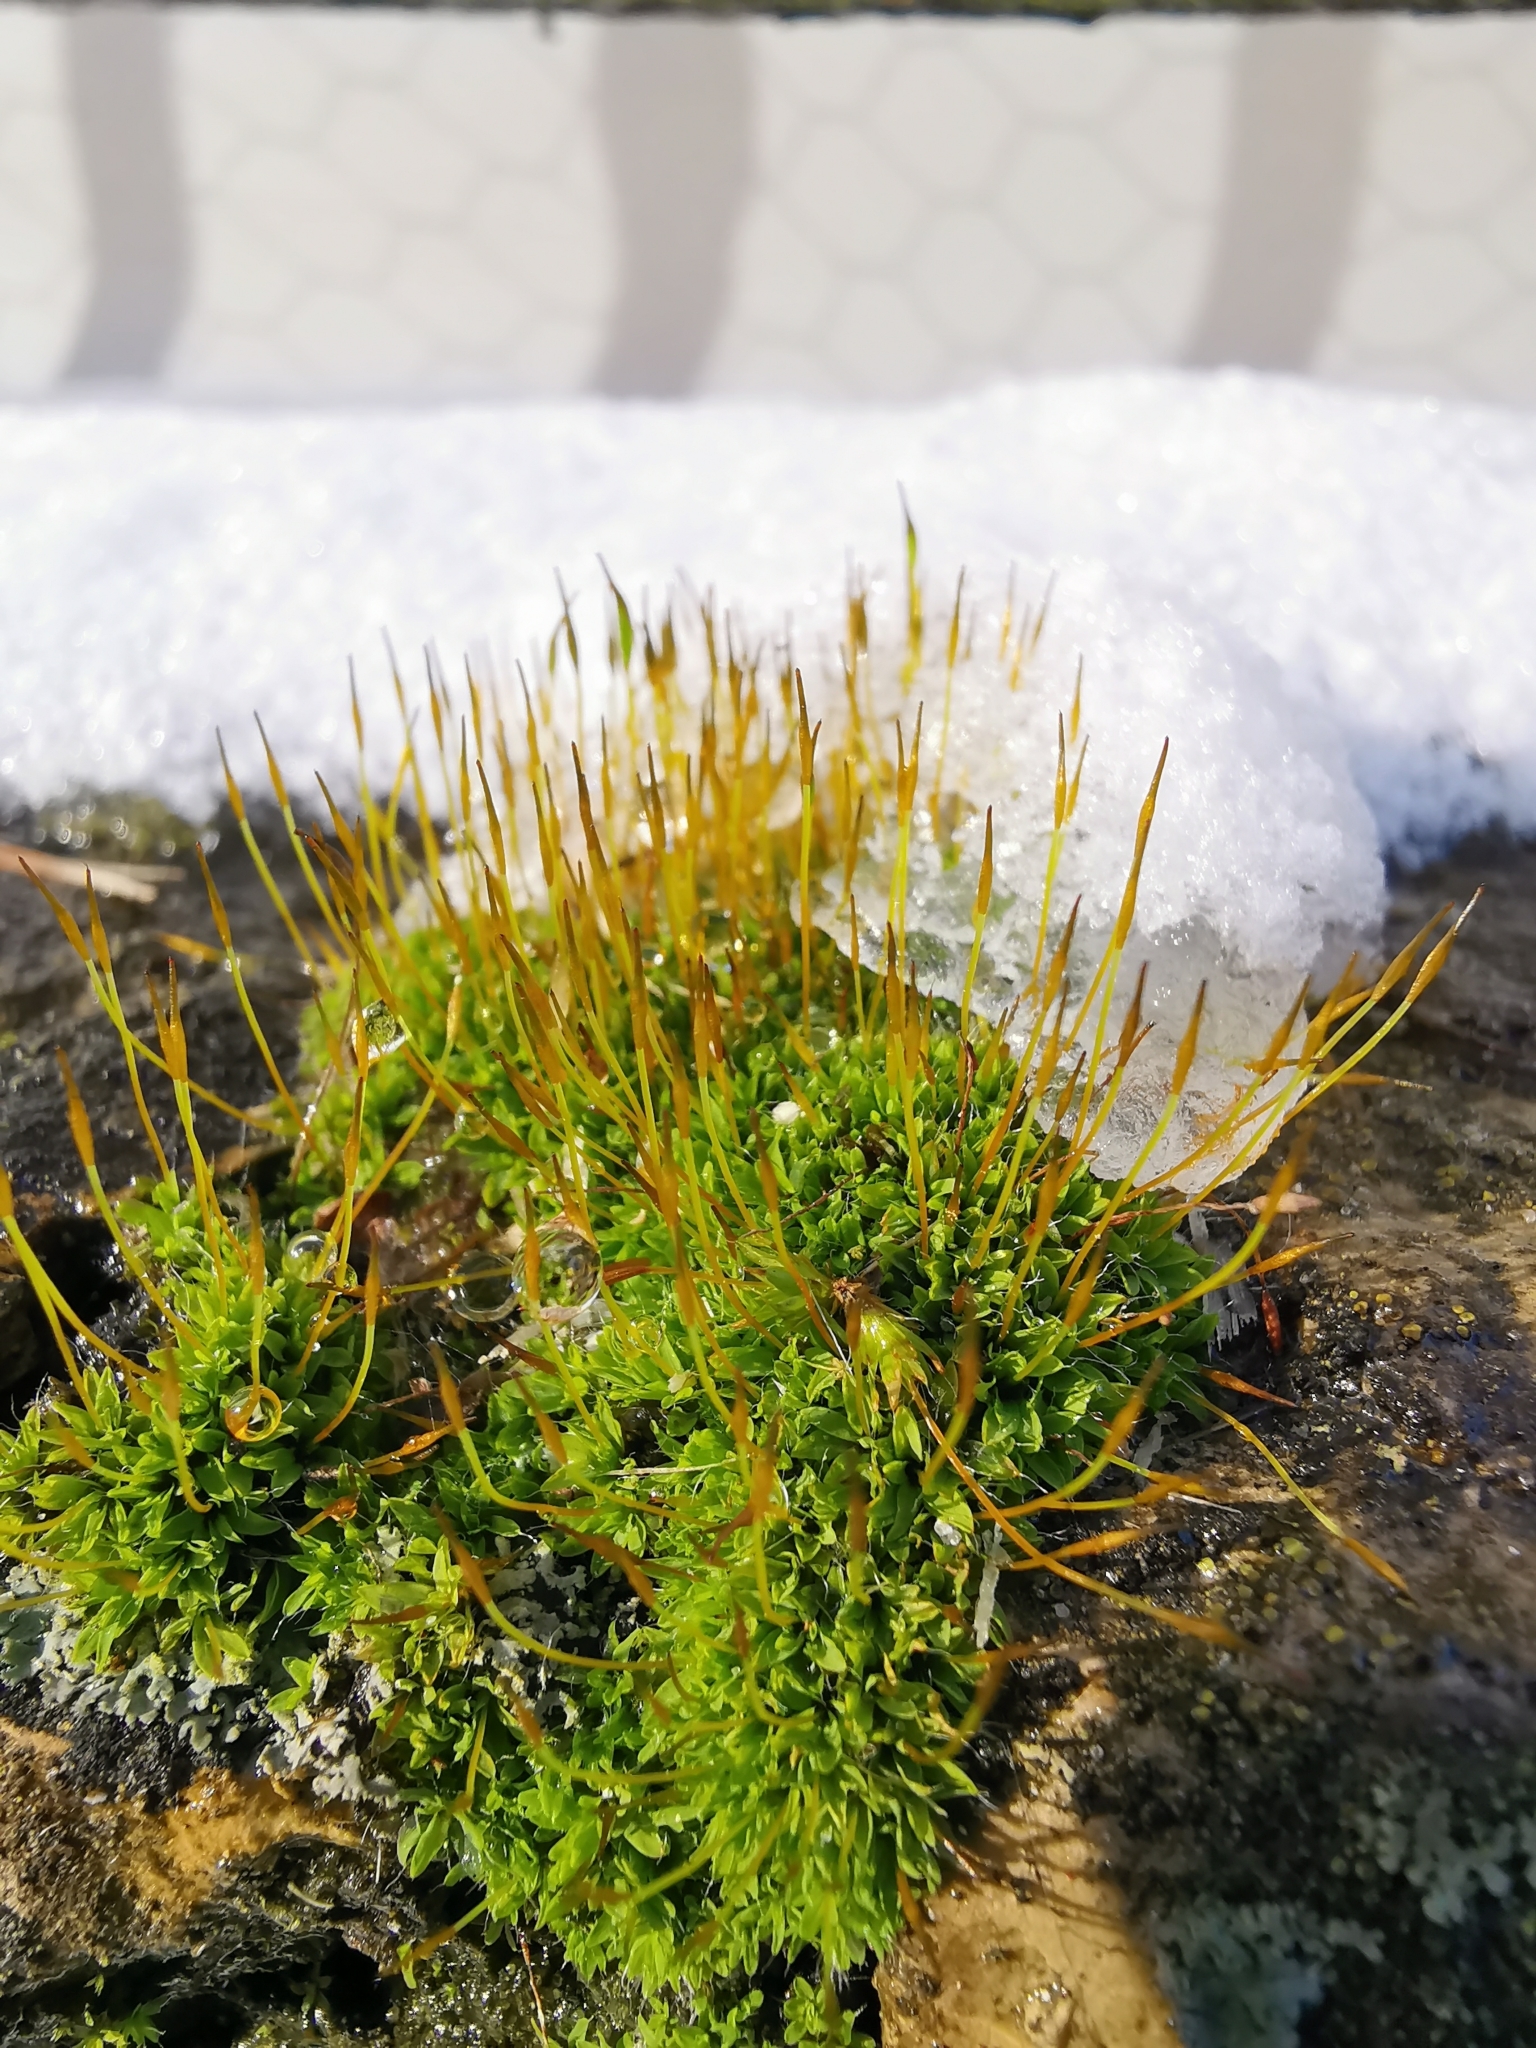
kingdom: Plantae
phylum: Bryophyta
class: Bryopsida
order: Pottiales
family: Pottiaceae
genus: Tortula
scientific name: Tortula muralis
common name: Wall screw-moss
